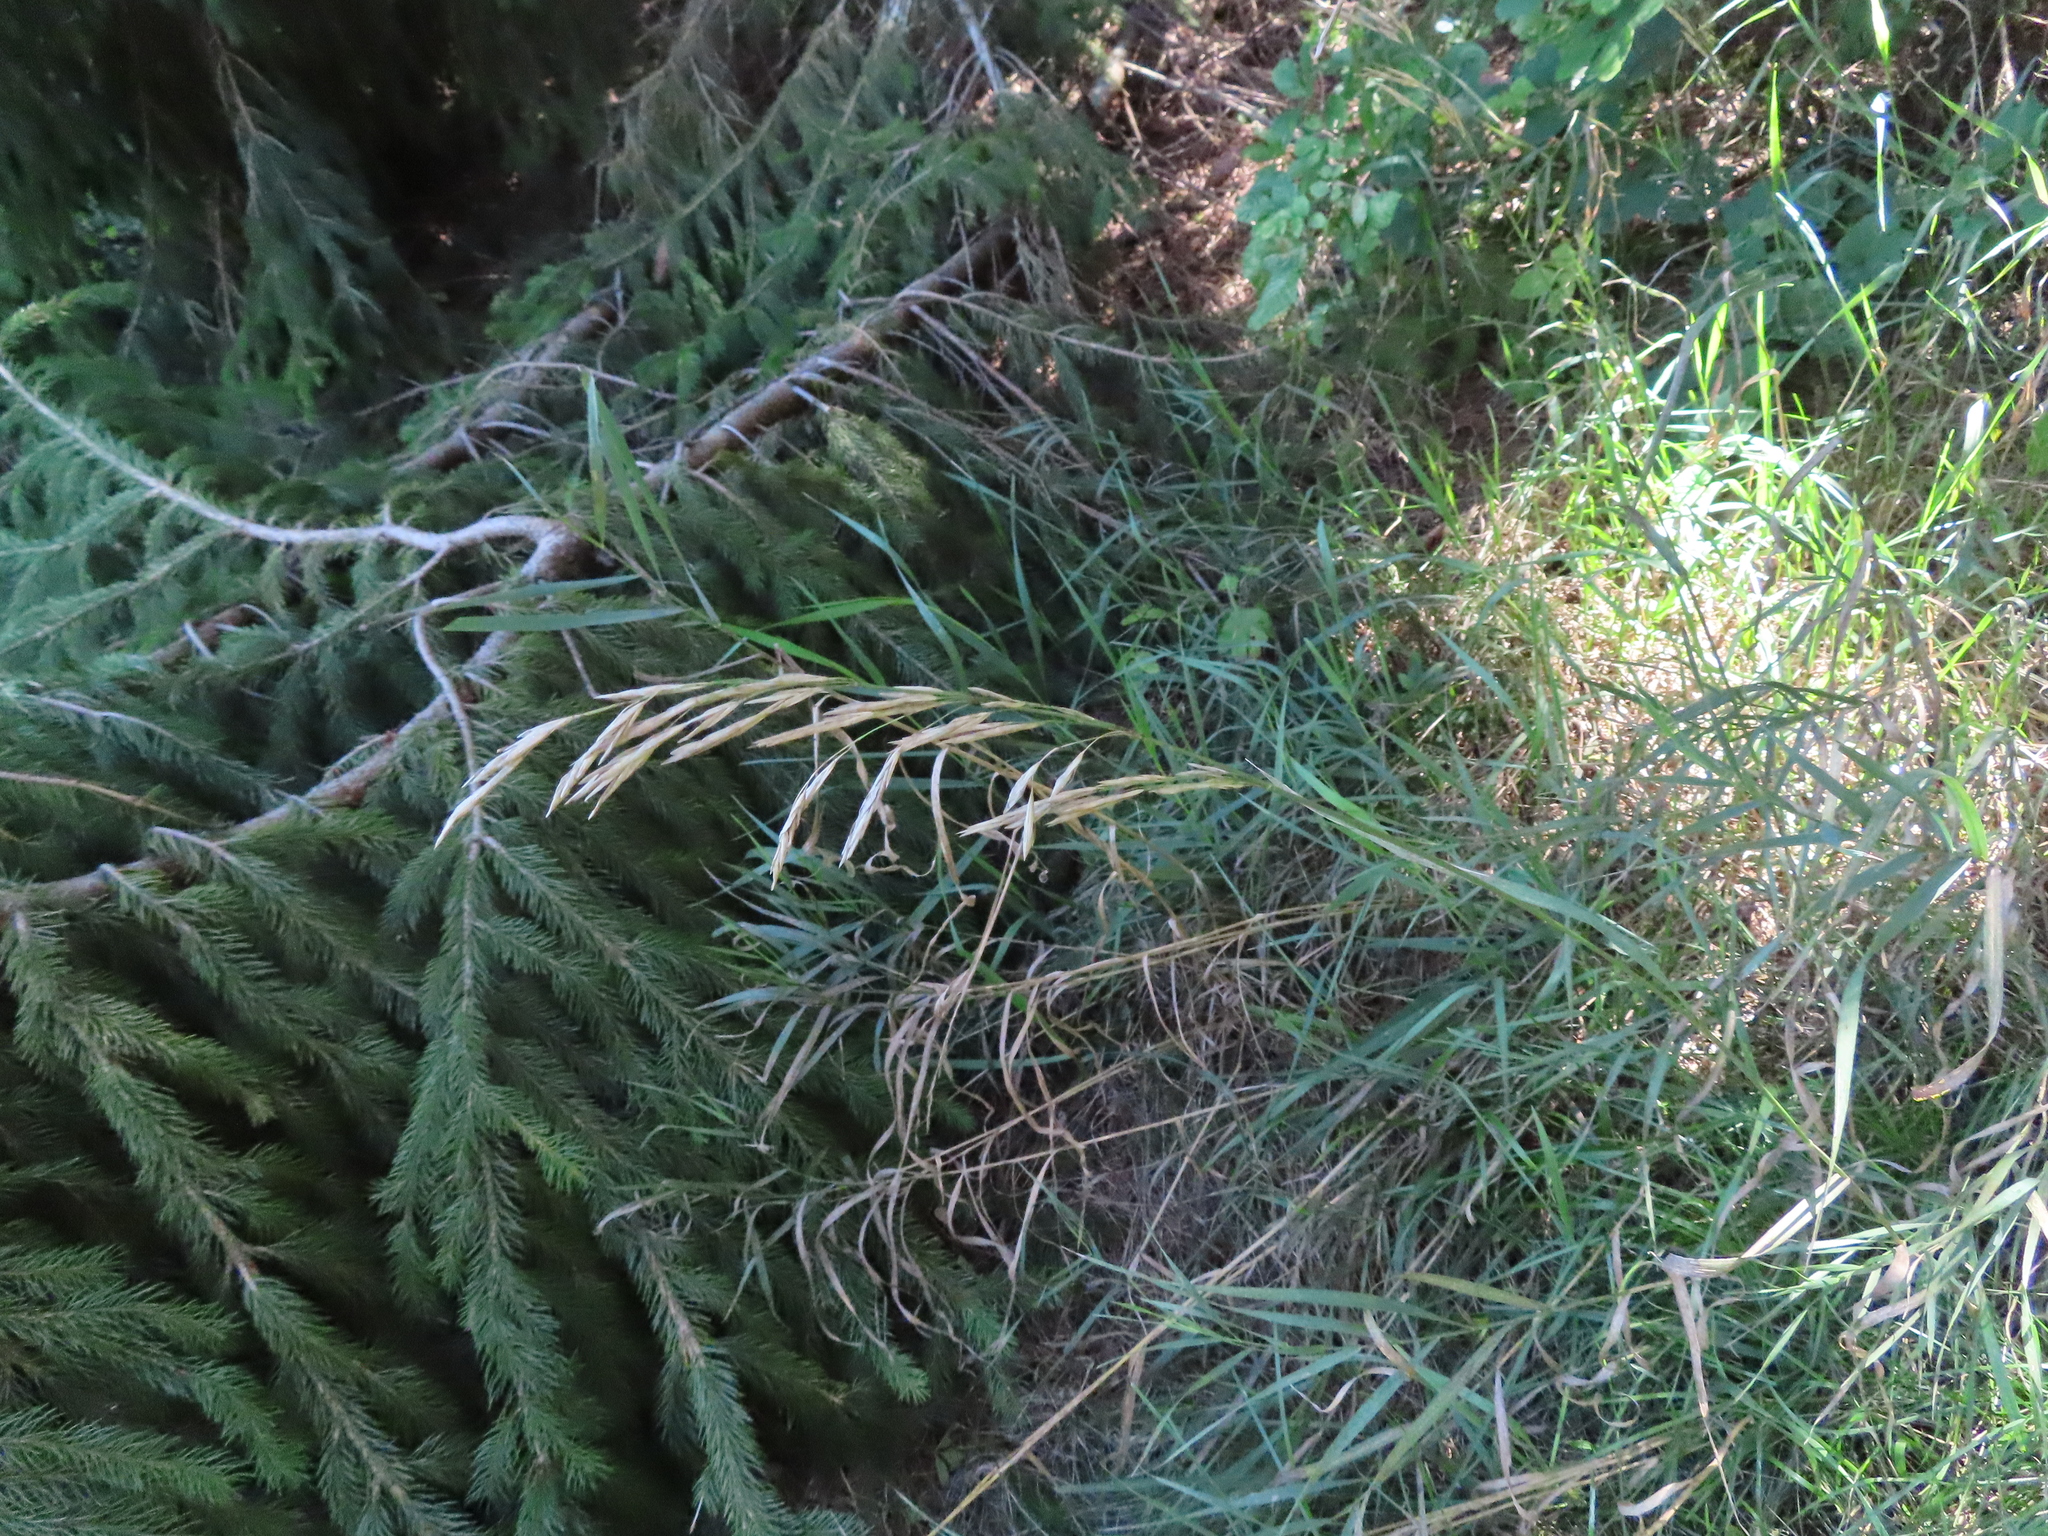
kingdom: Plantae
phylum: Tracheophyta
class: Liliopsida
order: Poales
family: Poaceae
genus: Bromus
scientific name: Bromus inermis
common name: Smooth brome
